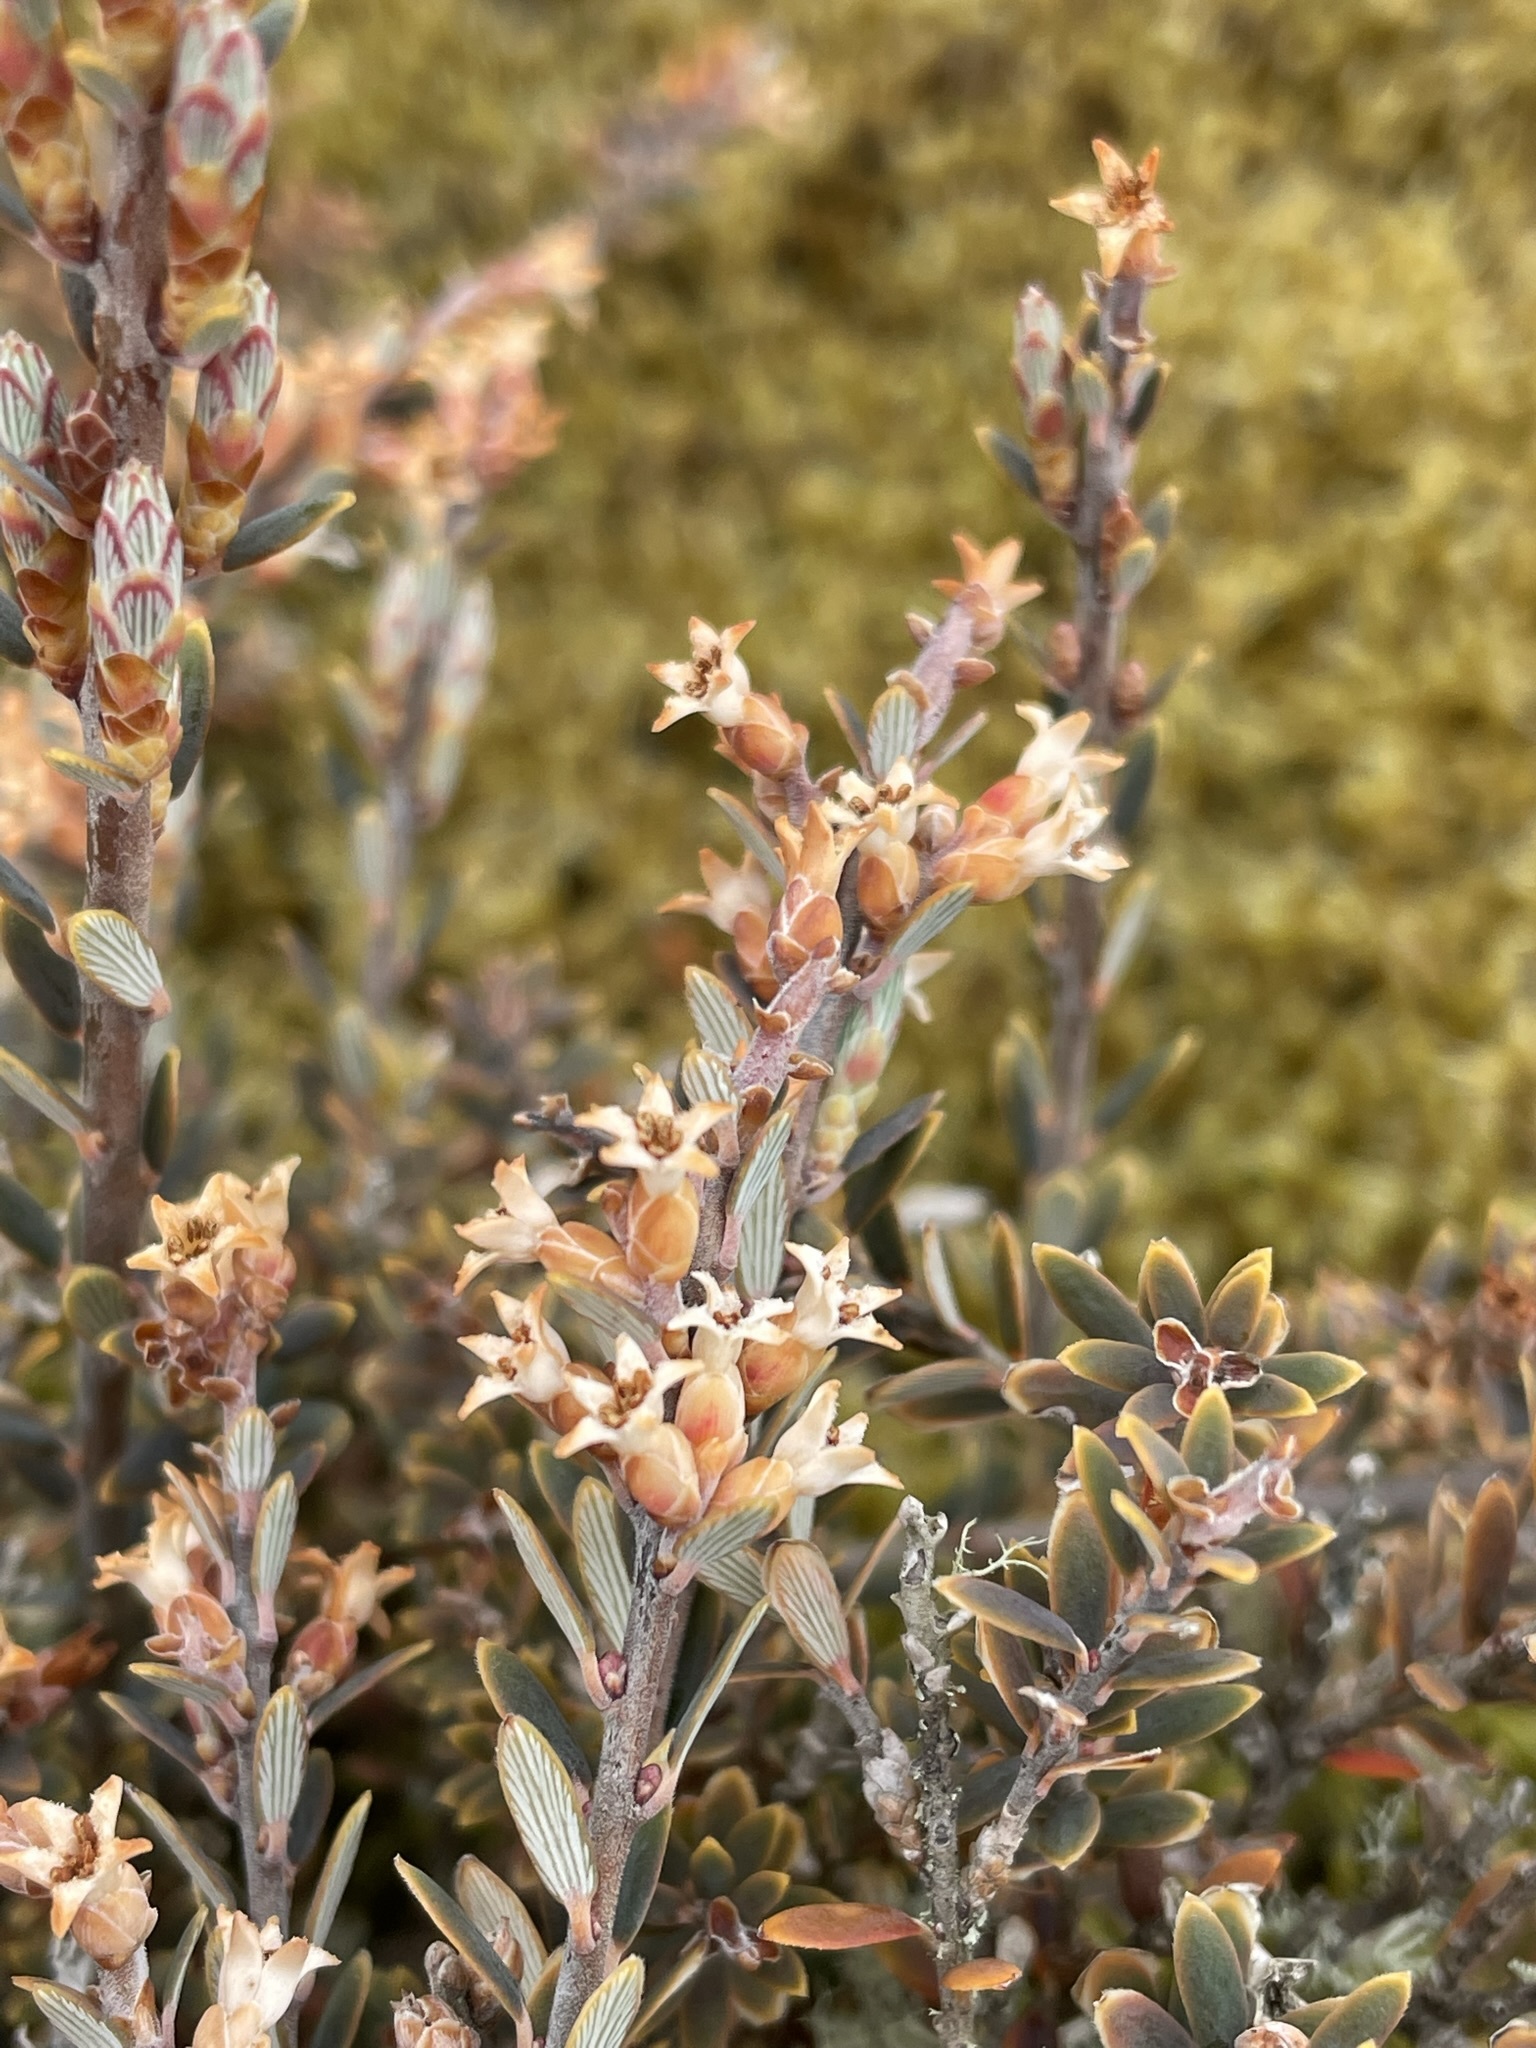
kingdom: Plantae
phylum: Tracheophyta
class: Magnoliopsida
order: Ericales
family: Ericaceae
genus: Acrothamnus
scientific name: Acrothamnus colensoi
